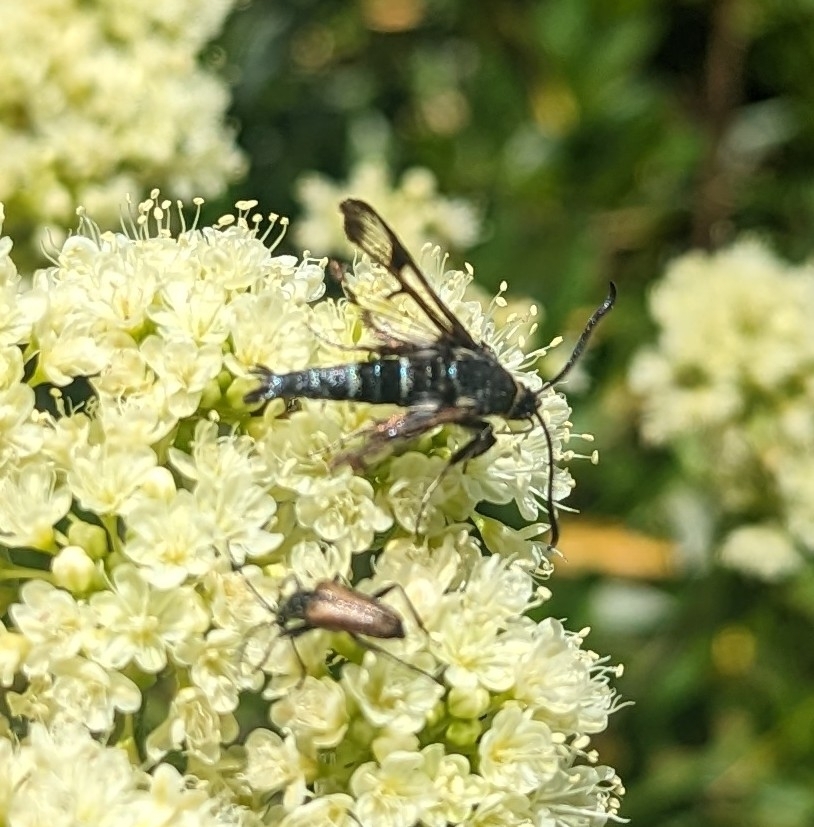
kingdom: Animalia
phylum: Arthropoda
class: Insecta
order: Lepidoptera
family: Sesiidae
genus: Albuna
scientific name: Albuna pyramidalis
